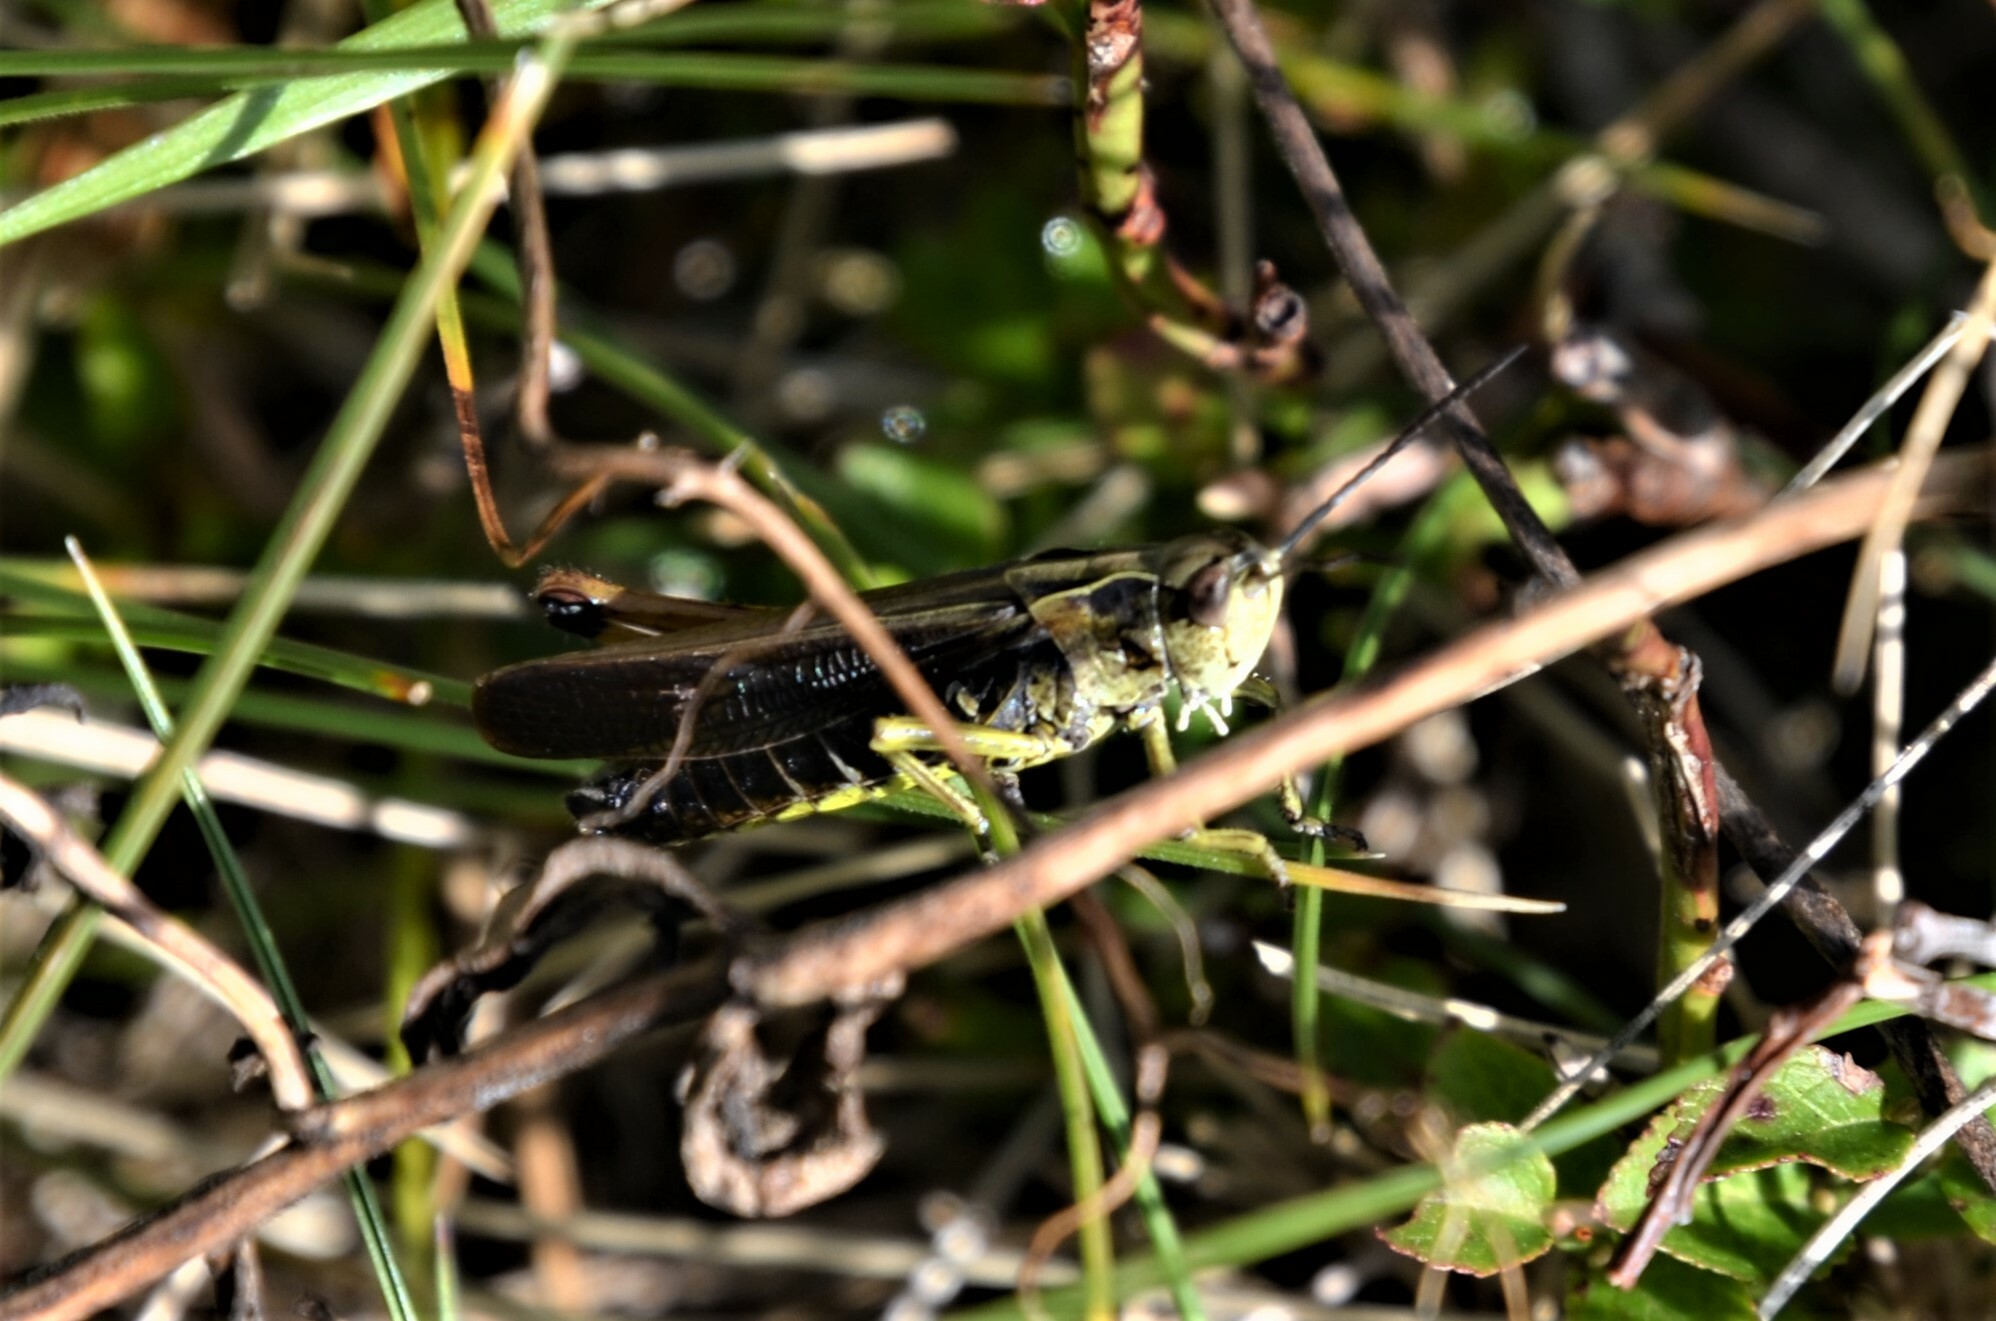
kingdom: Animalia
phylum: Arthropoda
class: Insecta
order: Orthoptera
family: Acrididae
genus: Omocestus
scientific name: Omocestus viridulus
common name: Common green grasshopper
